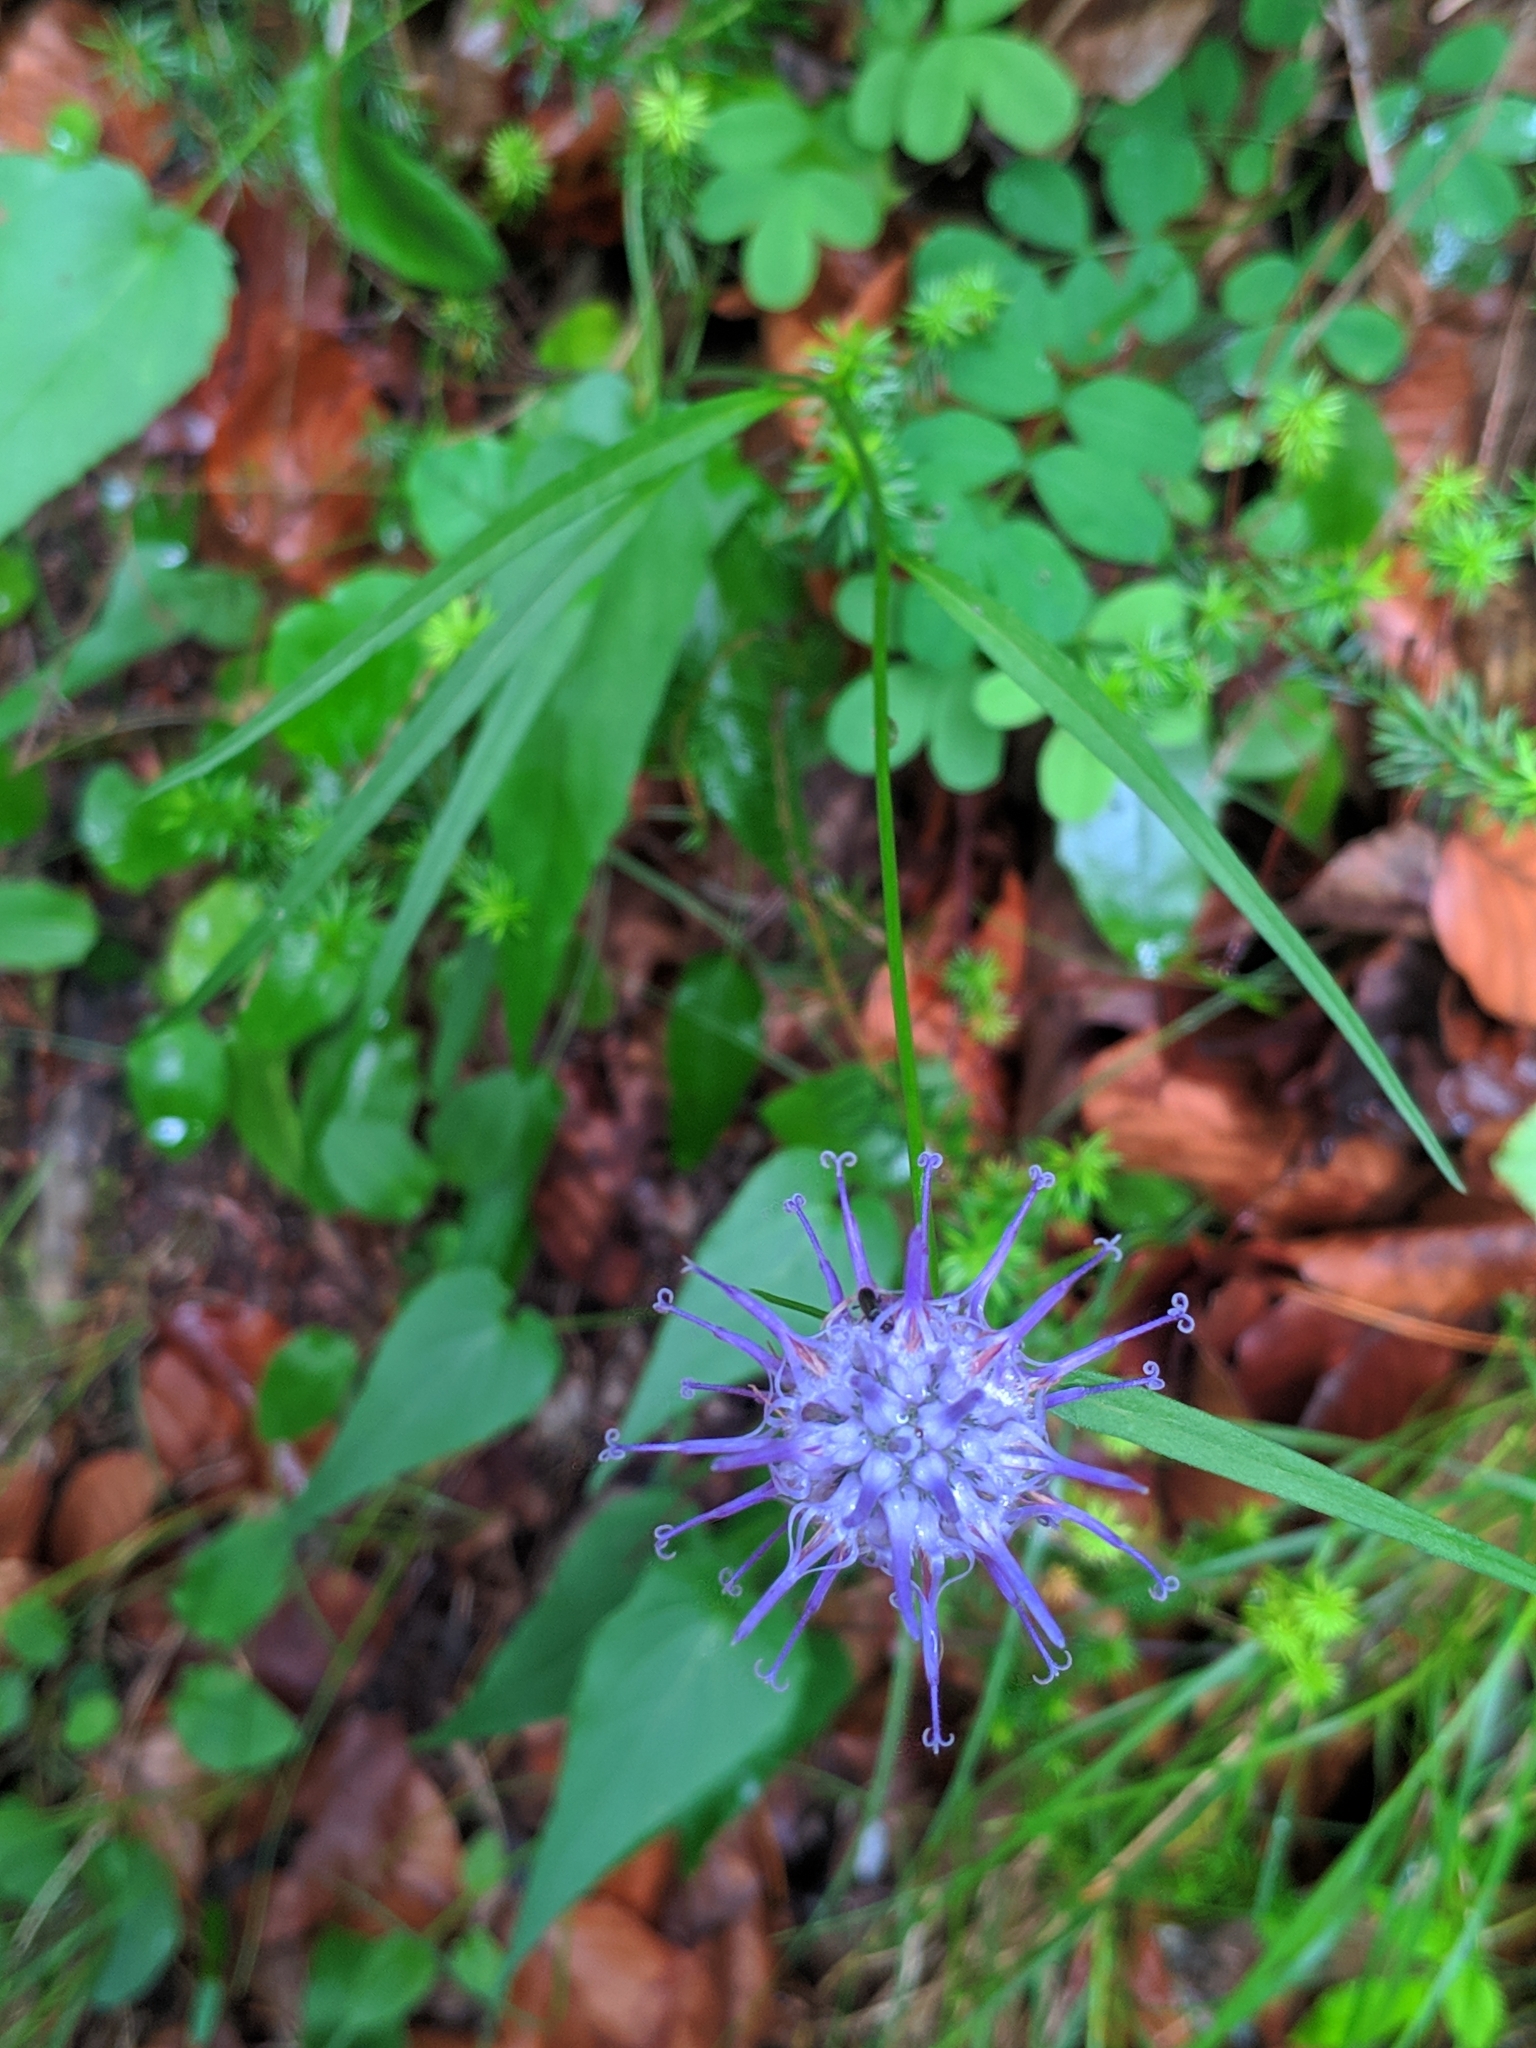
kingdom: Plantae
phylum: Tracheophyta
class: Magnoliopsida
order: Asterales
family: Campanulaceae
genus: Phyteuma
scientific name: Phyteuma scheuchzeri
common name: Oxford rampion
